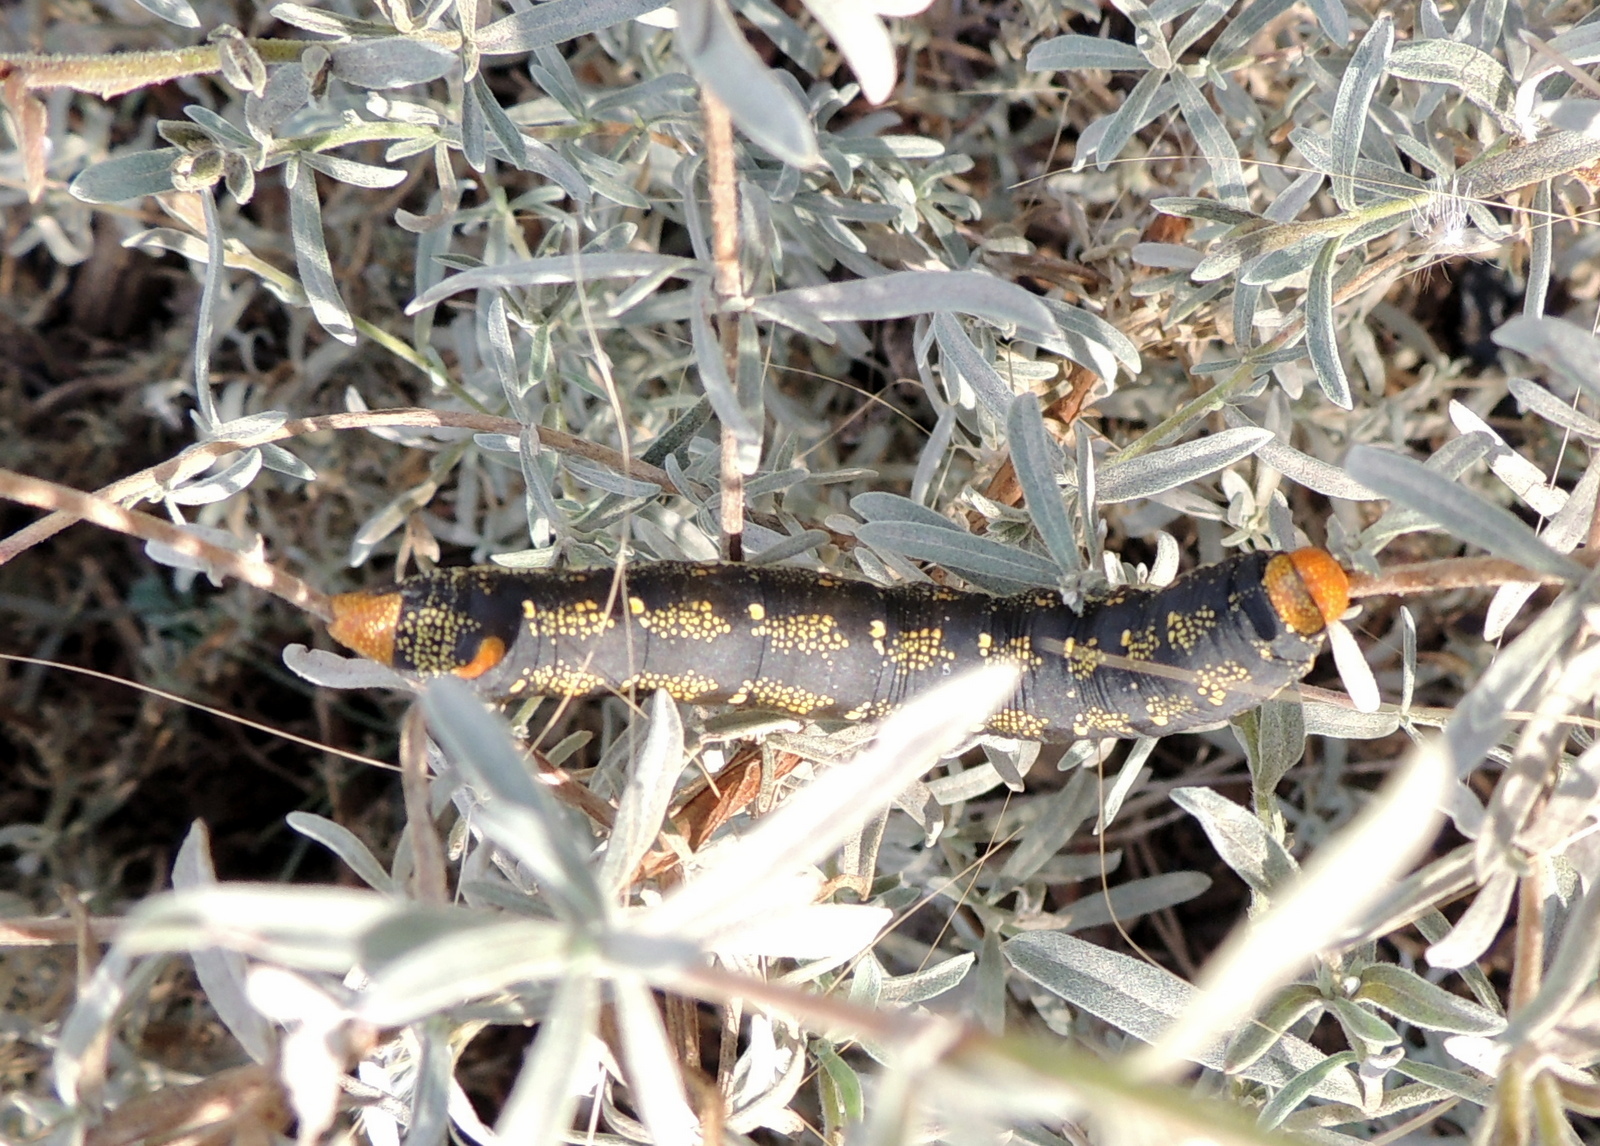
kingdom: Animalia
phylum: Arthropoda
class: Insecta
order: Lepidoptera
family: Sphingidae
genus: Hyles
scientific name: Hyles lineata
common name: White-lined sphinx
